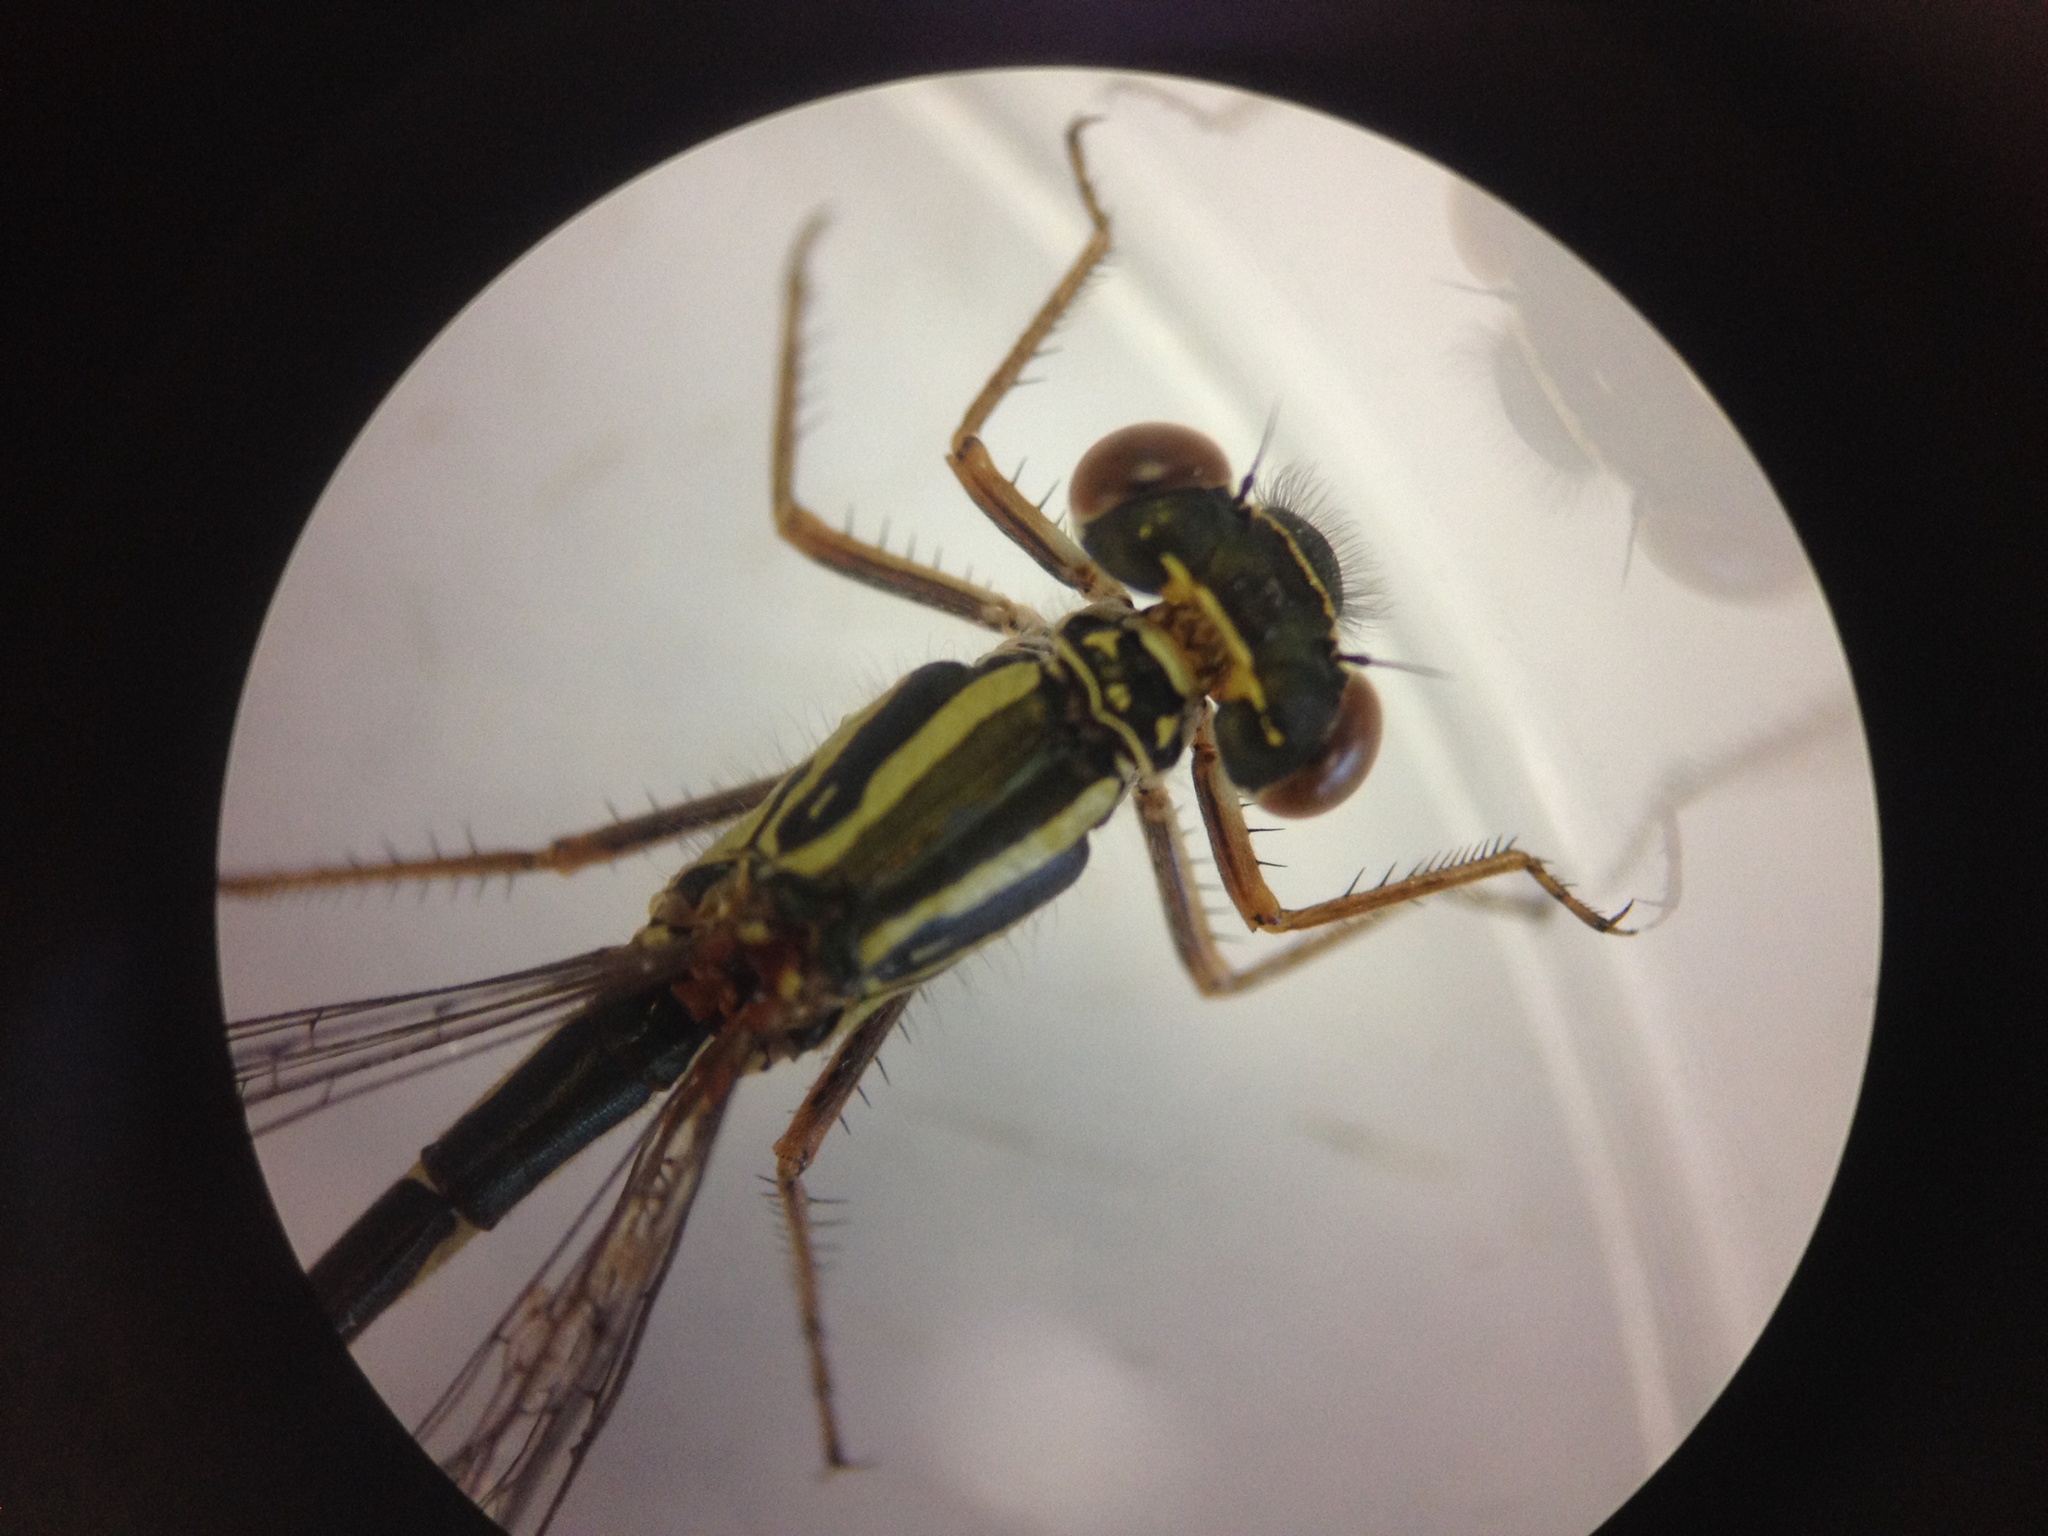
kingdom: Animalia
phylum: Arthropoda
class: Insecta
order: Odonata
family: Coenagrionidae
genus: Xanthocnemis
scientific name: Xanthocnemis zealandica
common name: Common redcoat damselfly
